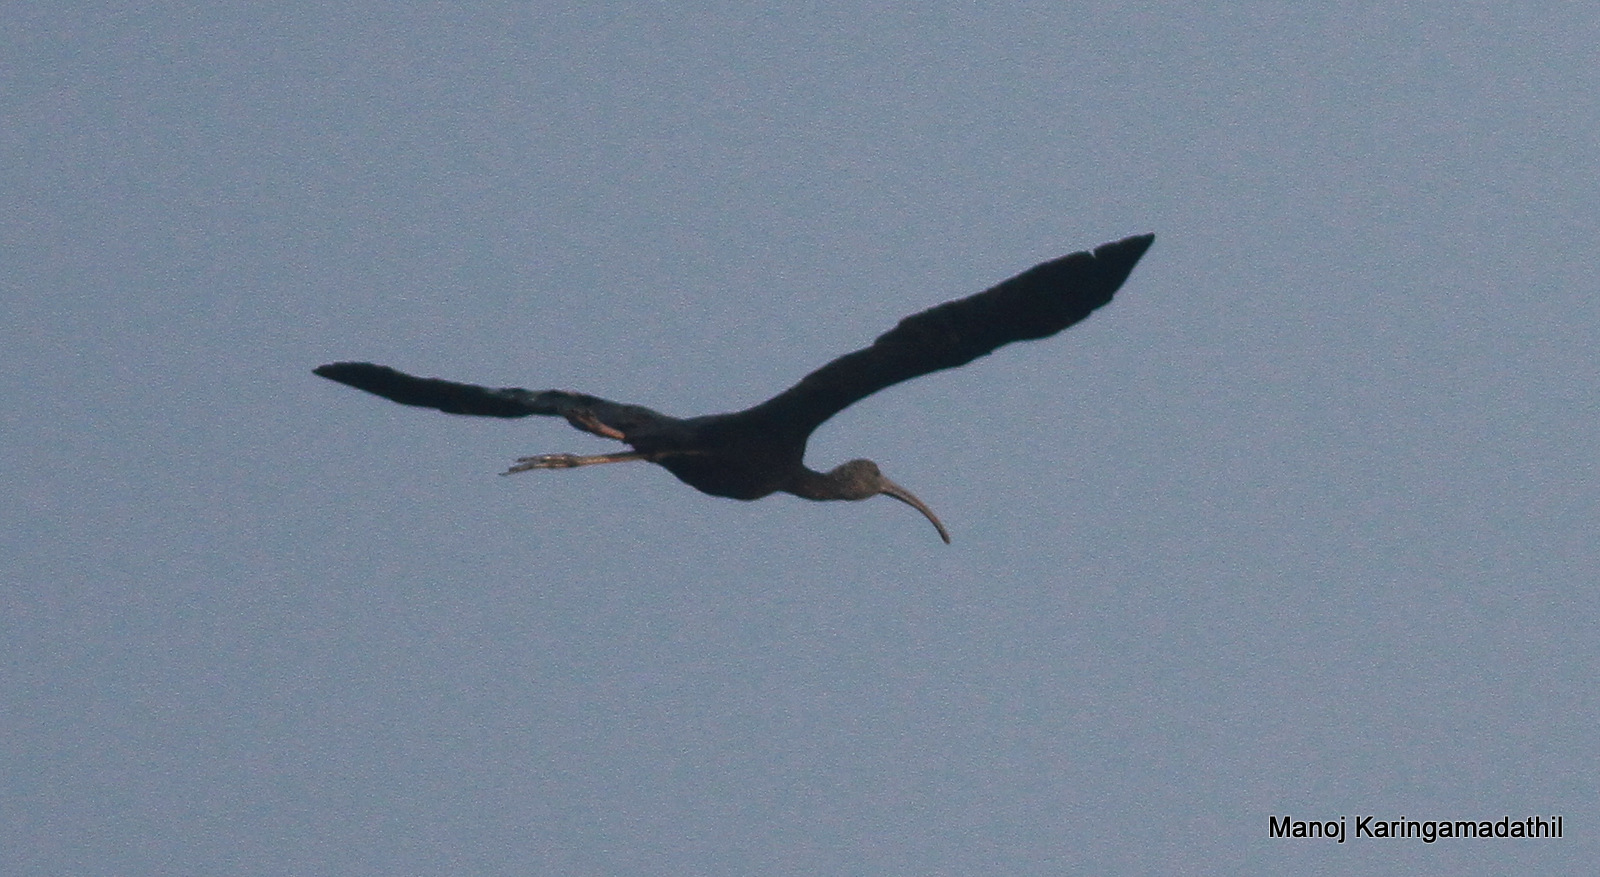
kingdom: Animalia
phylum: Chordata
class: Aves
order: Pelecaniformes
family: Threskiornithidae
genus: Plegadis
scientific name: Plegadis falcinellus
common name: Glossy ibis
